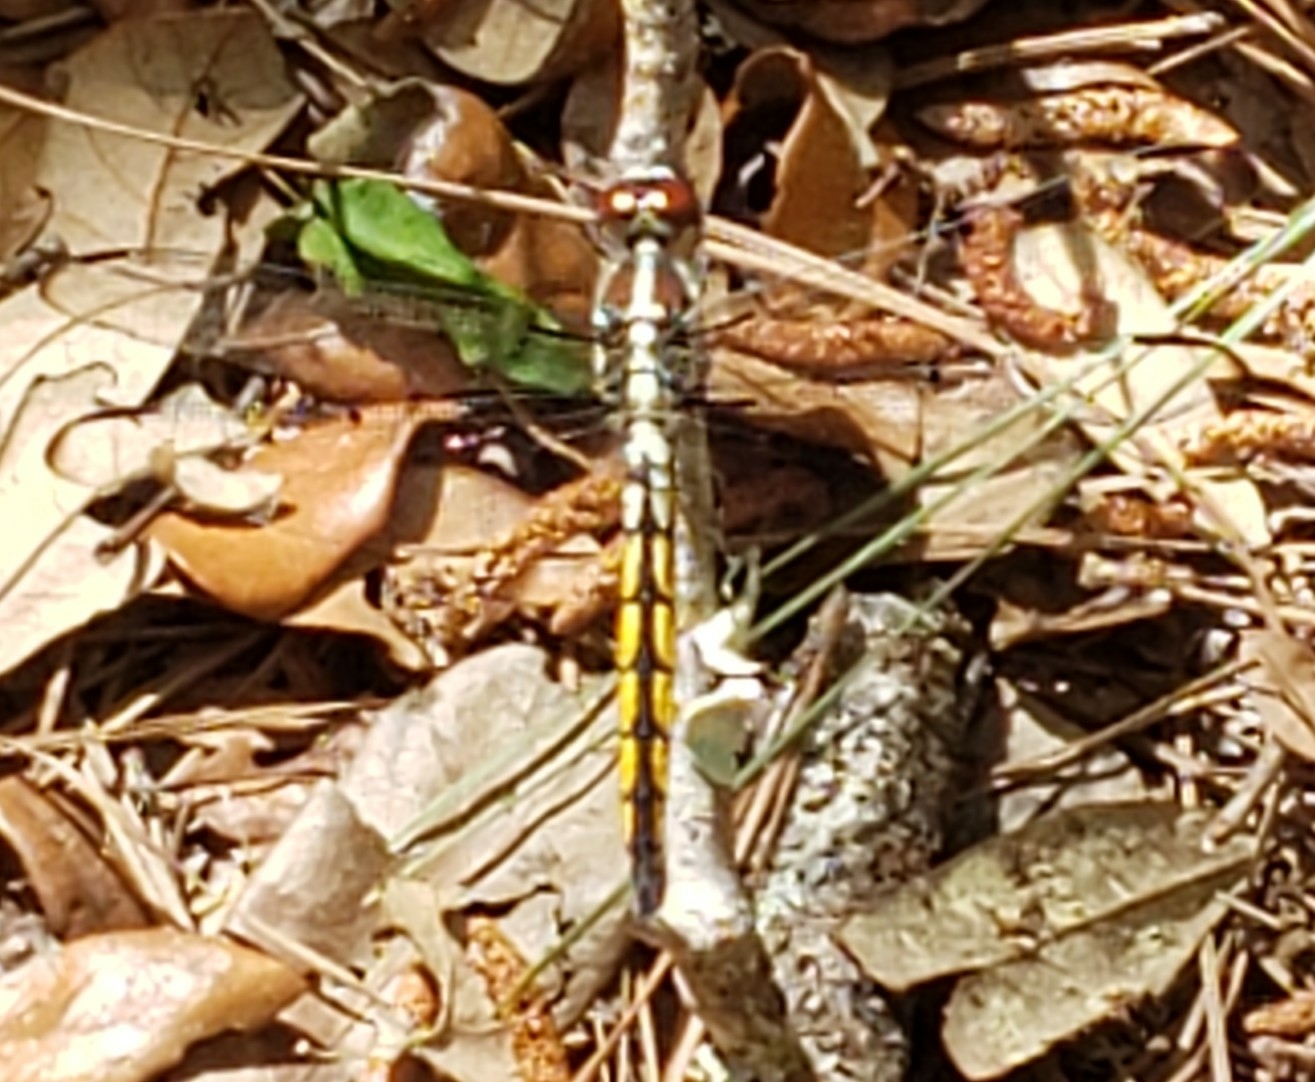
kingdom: Animalia
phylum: Arthropoda
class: Insecta
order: Odonata
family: Libellulidae
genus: Libellula
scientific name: Libellula axilena
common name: Bar-winged skimmer
